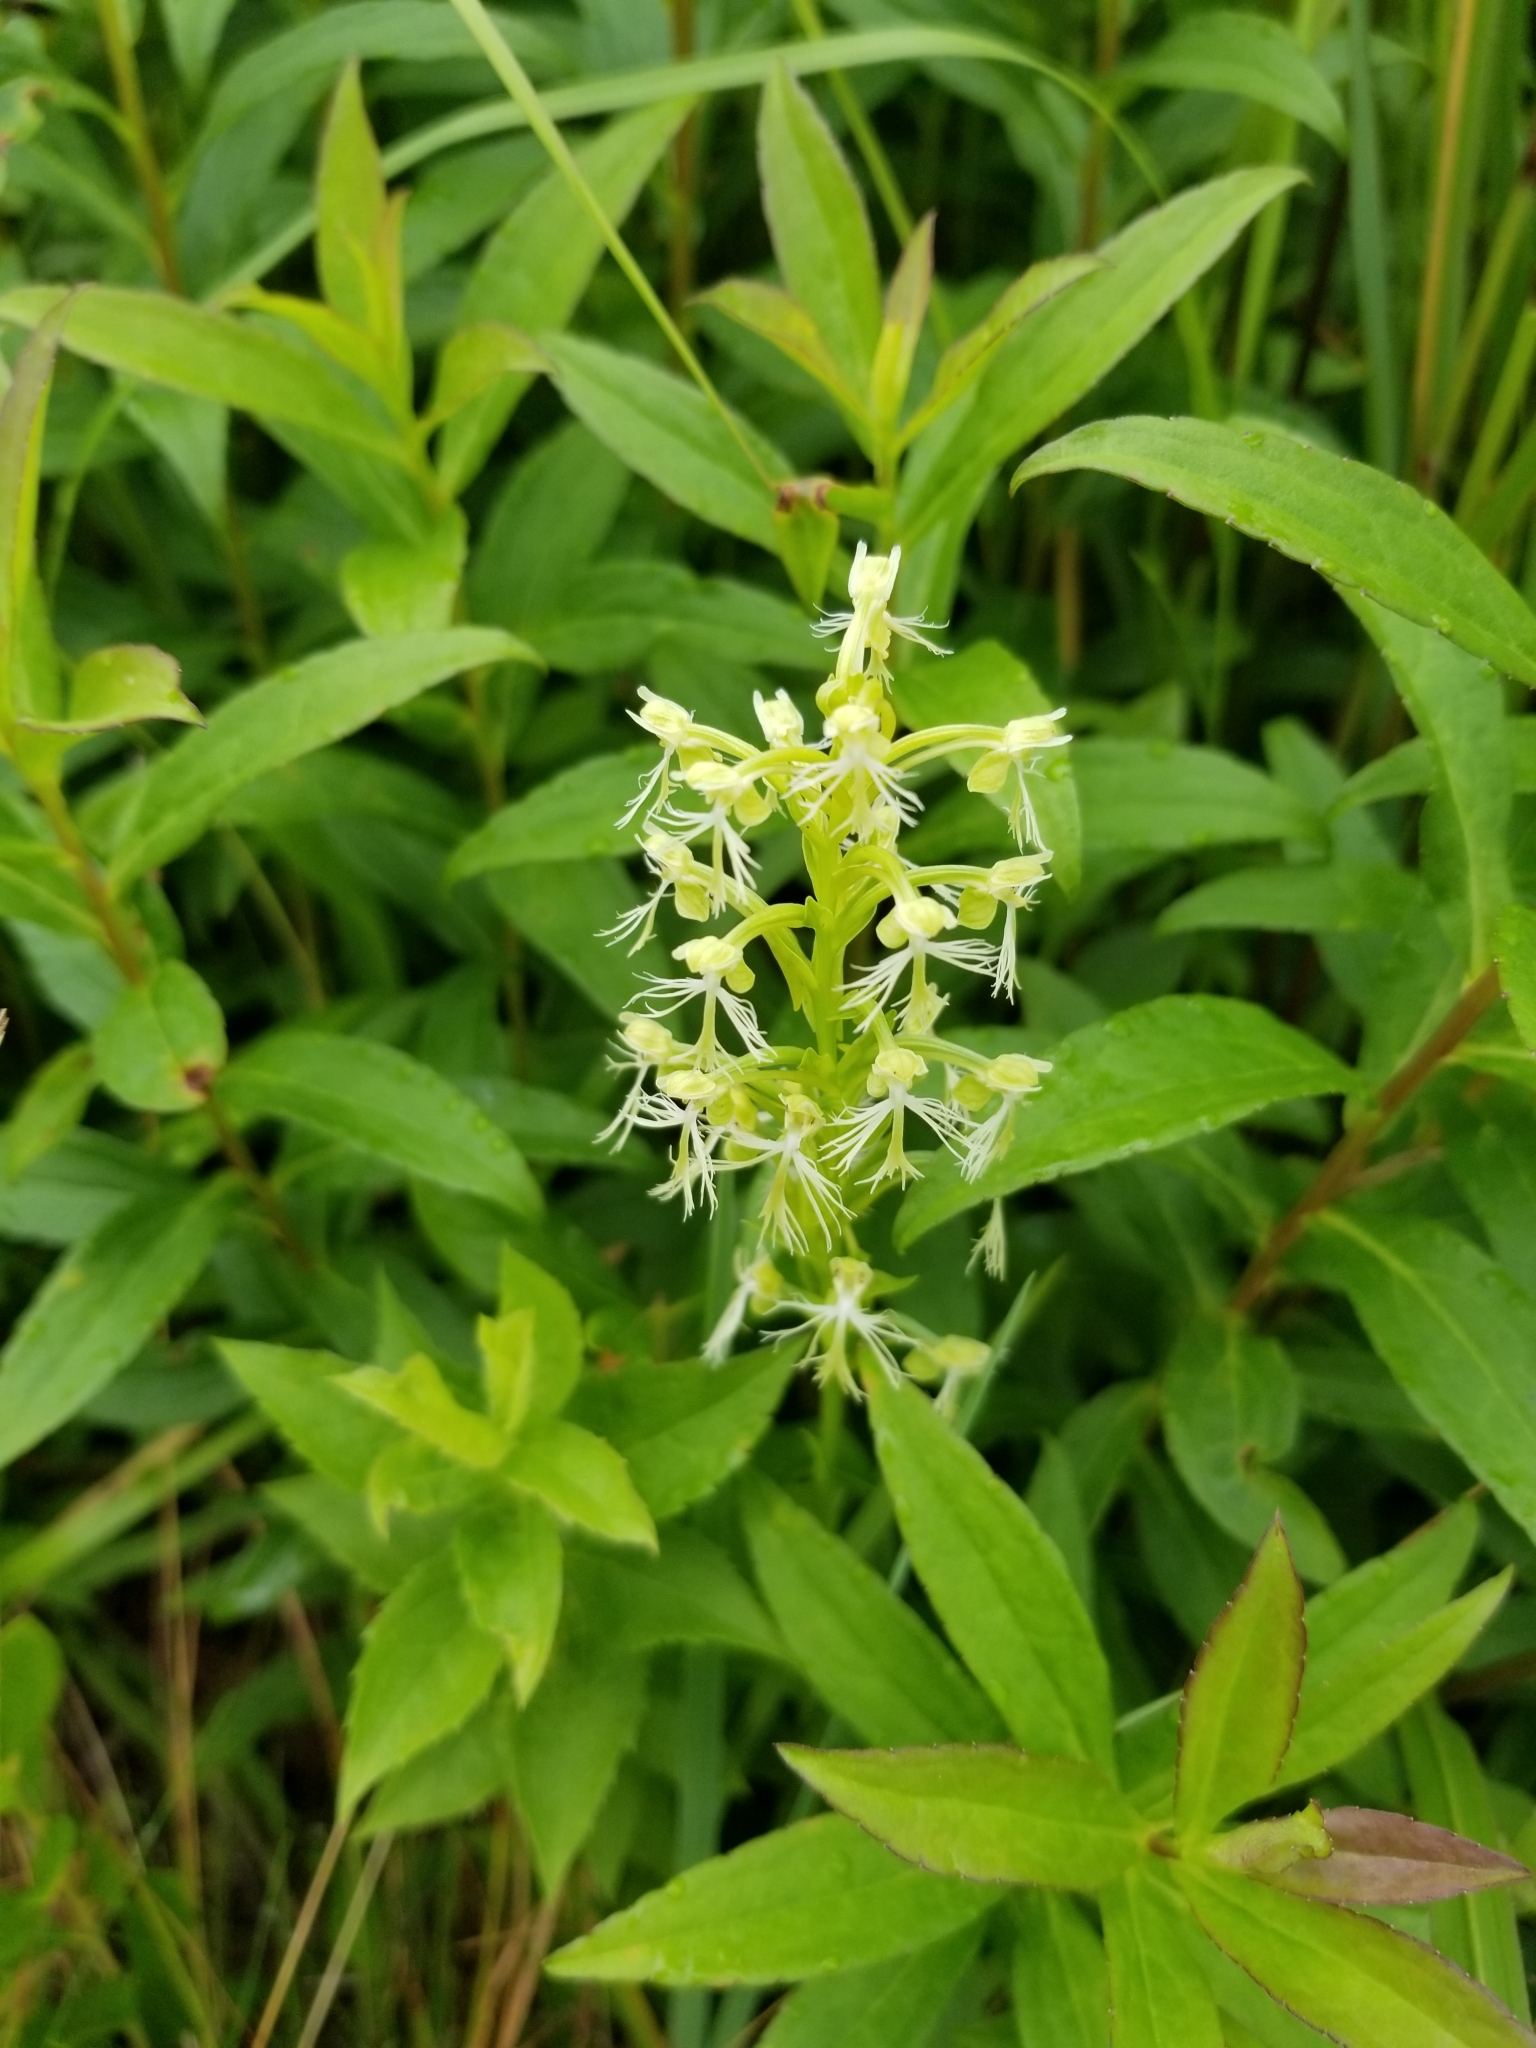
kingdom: Plantae
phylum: Tracheophyta
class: Liliopsida
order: Asparagales
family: Orchidaceae
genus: Platanthera
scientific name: Platanthera lacera
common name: Green fringed orchid
